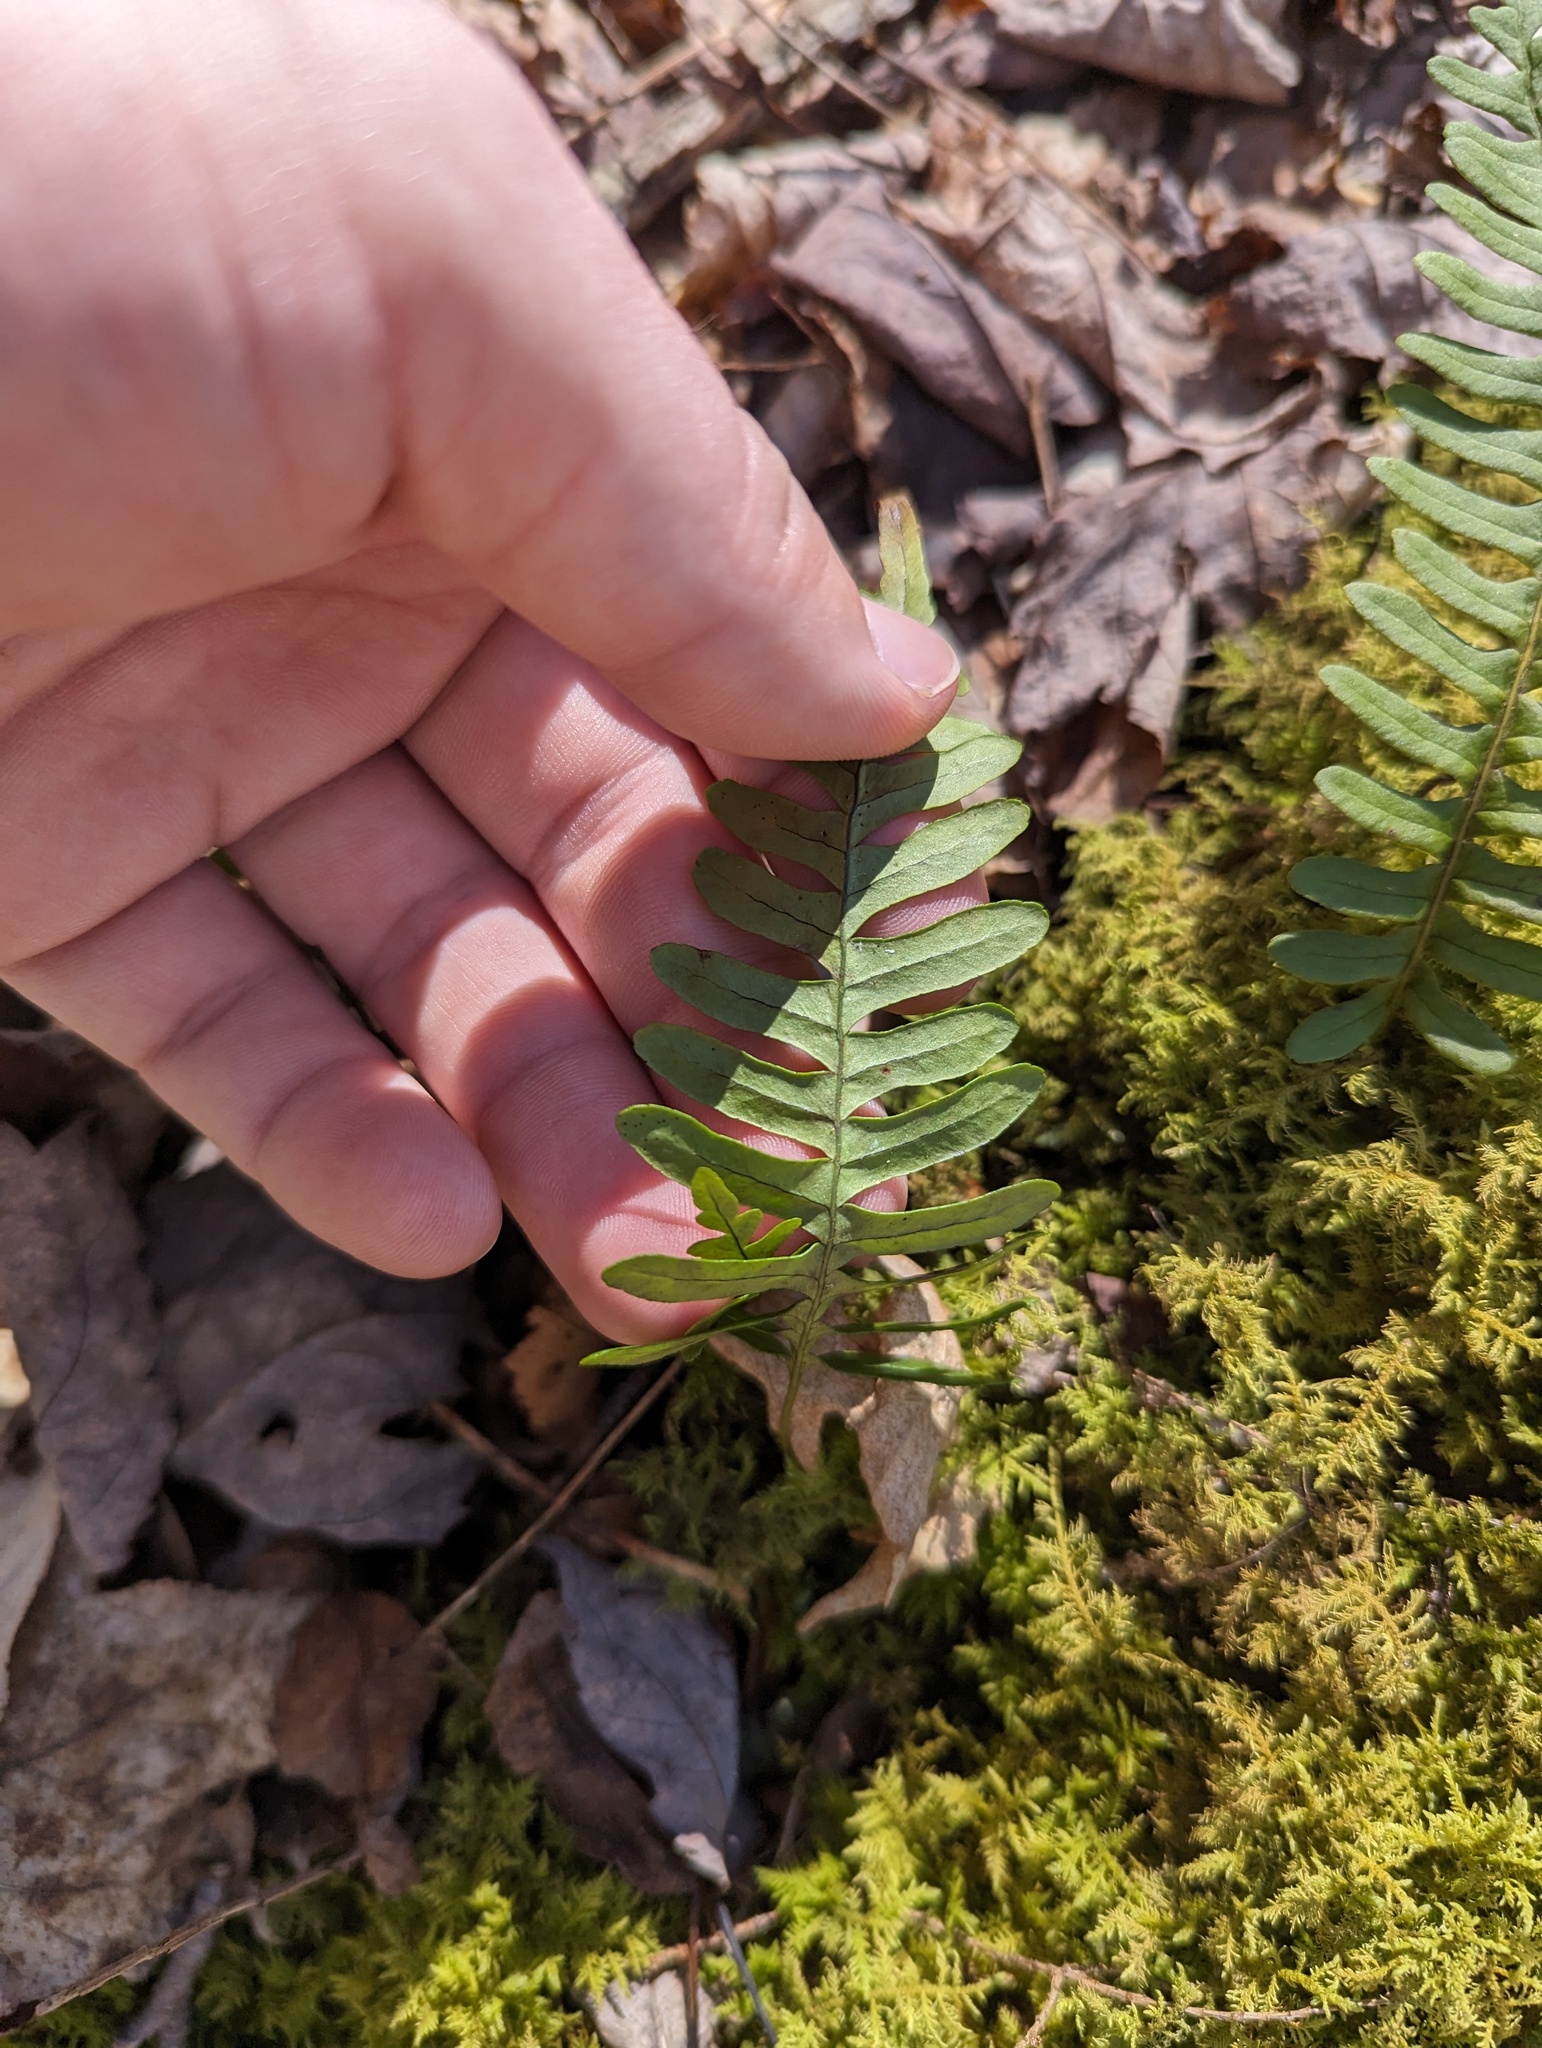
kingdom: Plantae
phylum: Tracheophyta
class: Polypodiopsida
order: Polypodiales
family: Polypodiaceae
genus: Polypodium
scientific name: Polypodium virginianum
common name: American wall fern
